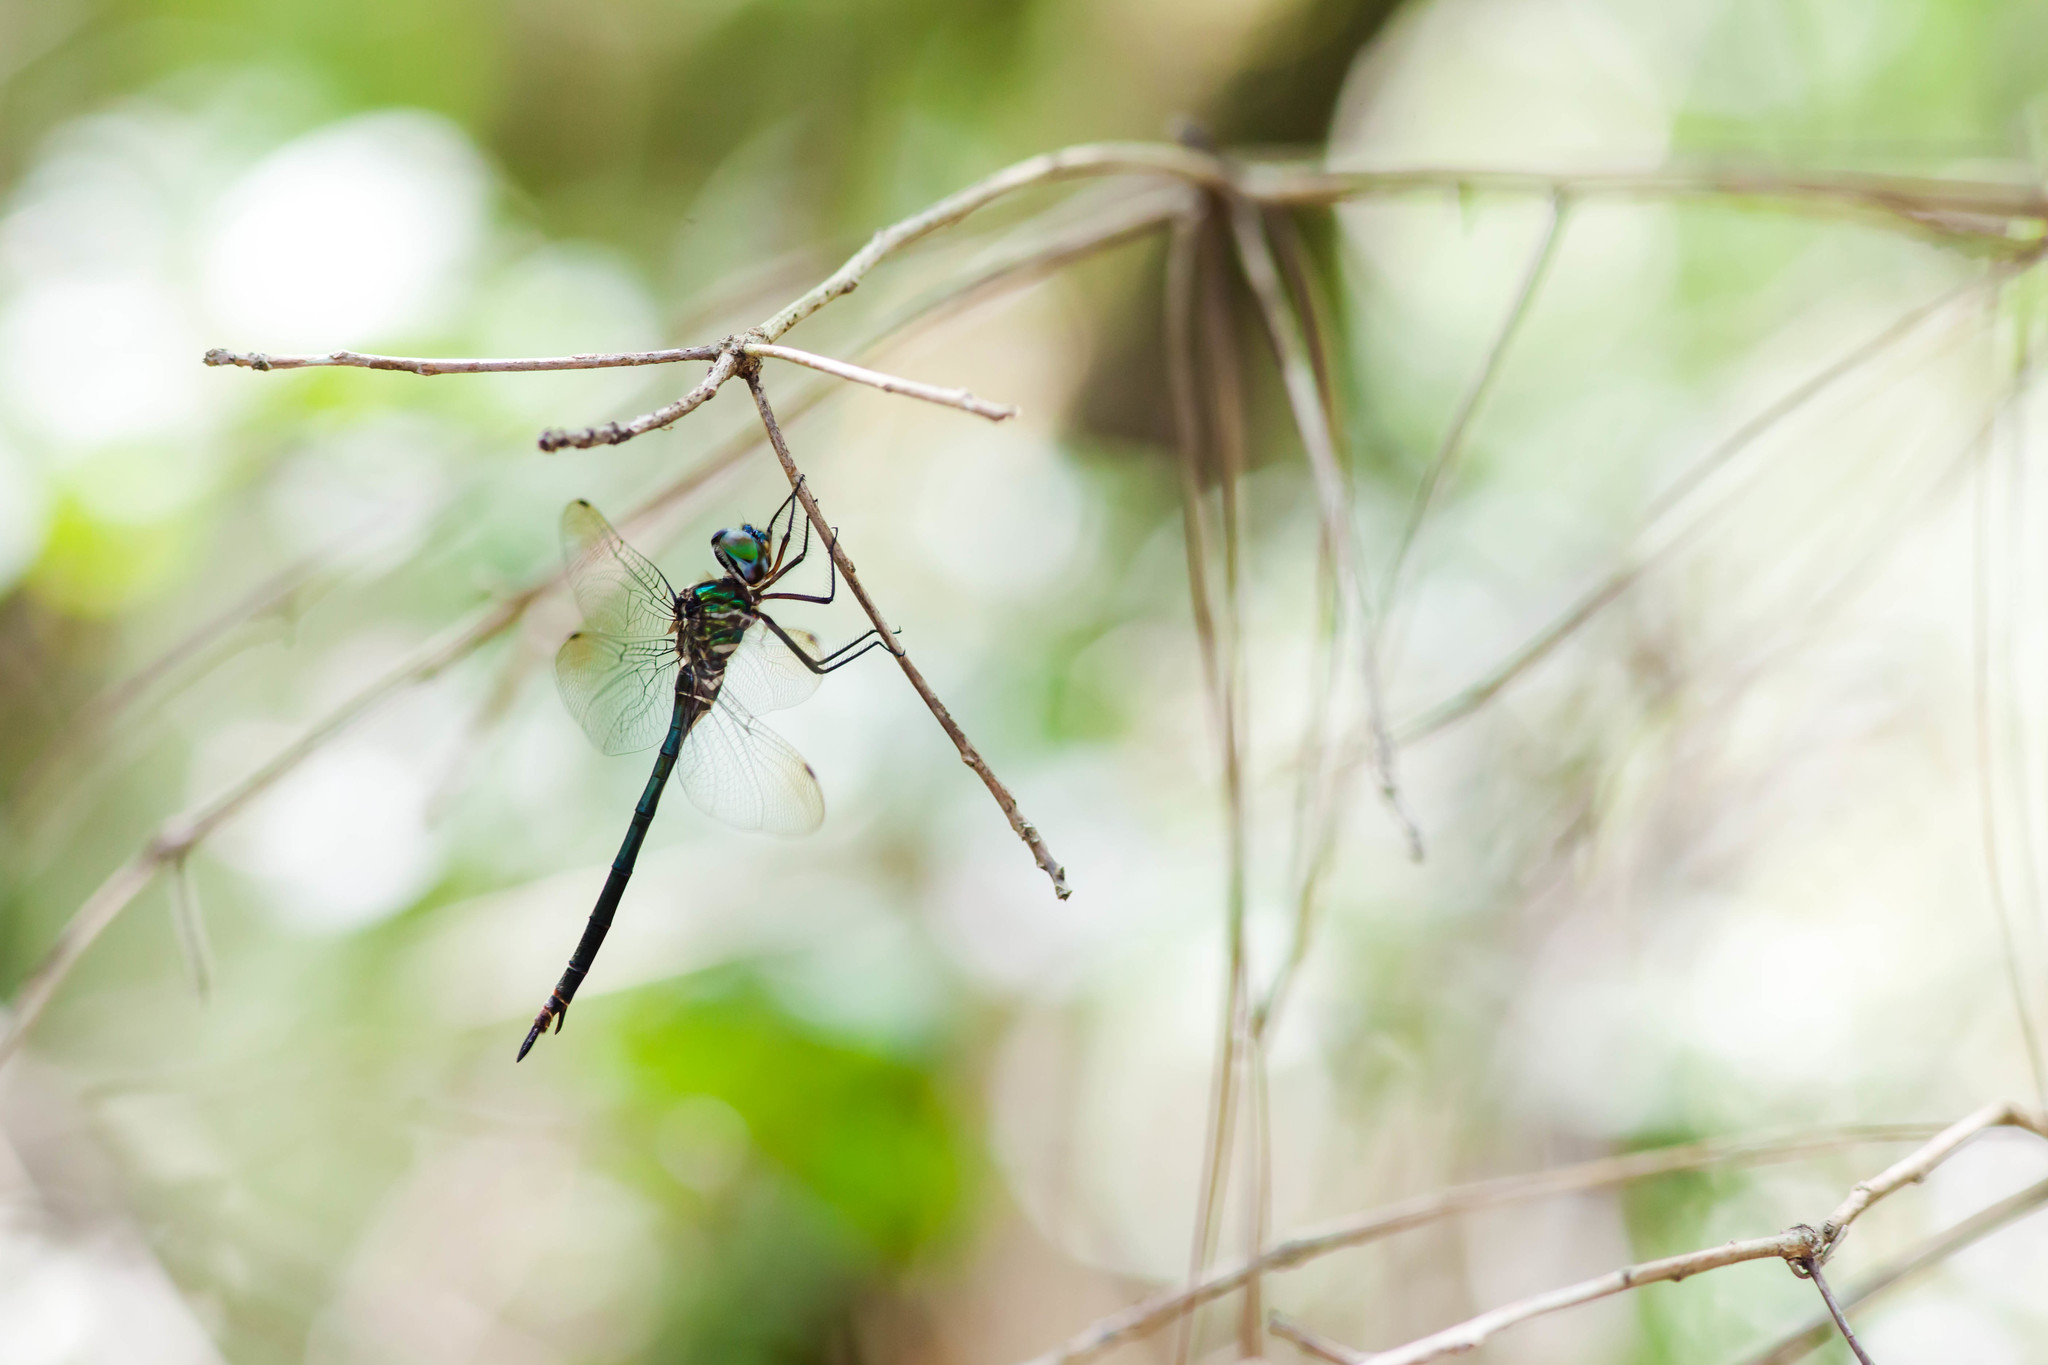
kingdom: Animalia
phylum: Arthropoda
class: Insecta
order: Odonata
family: Corduliidae
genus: Somatochlora
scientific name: Somatochlora filosa
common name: Fine-lined emerald
